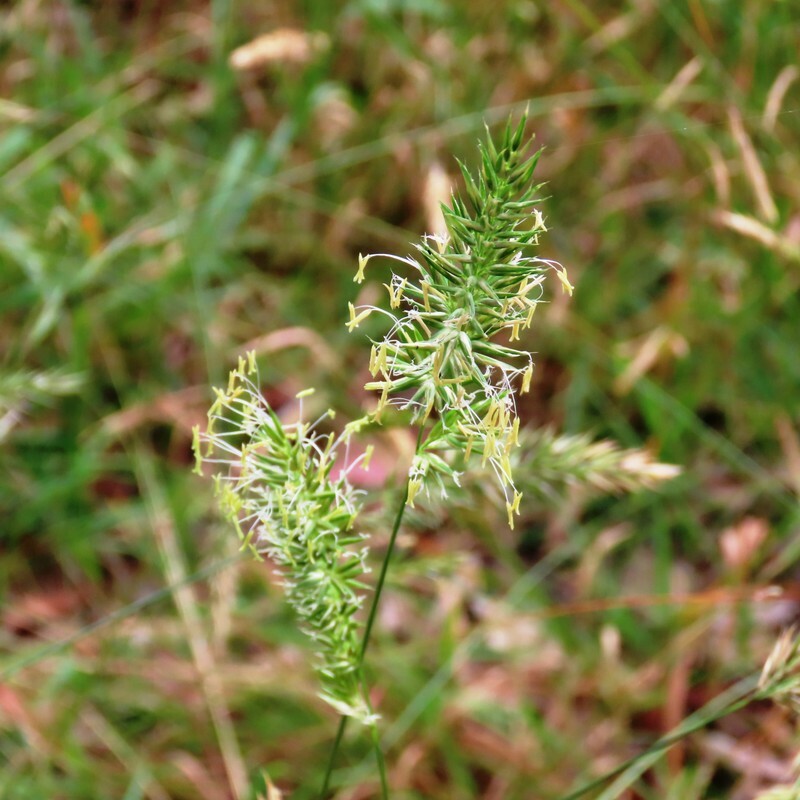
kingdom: Plantae
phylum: Tracheophyta
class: Liliopsida
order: Poales
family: Poaceae
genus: Anthoxanthum
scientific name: Anthoxanthum odoratum
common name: Sweet vernalgrass
